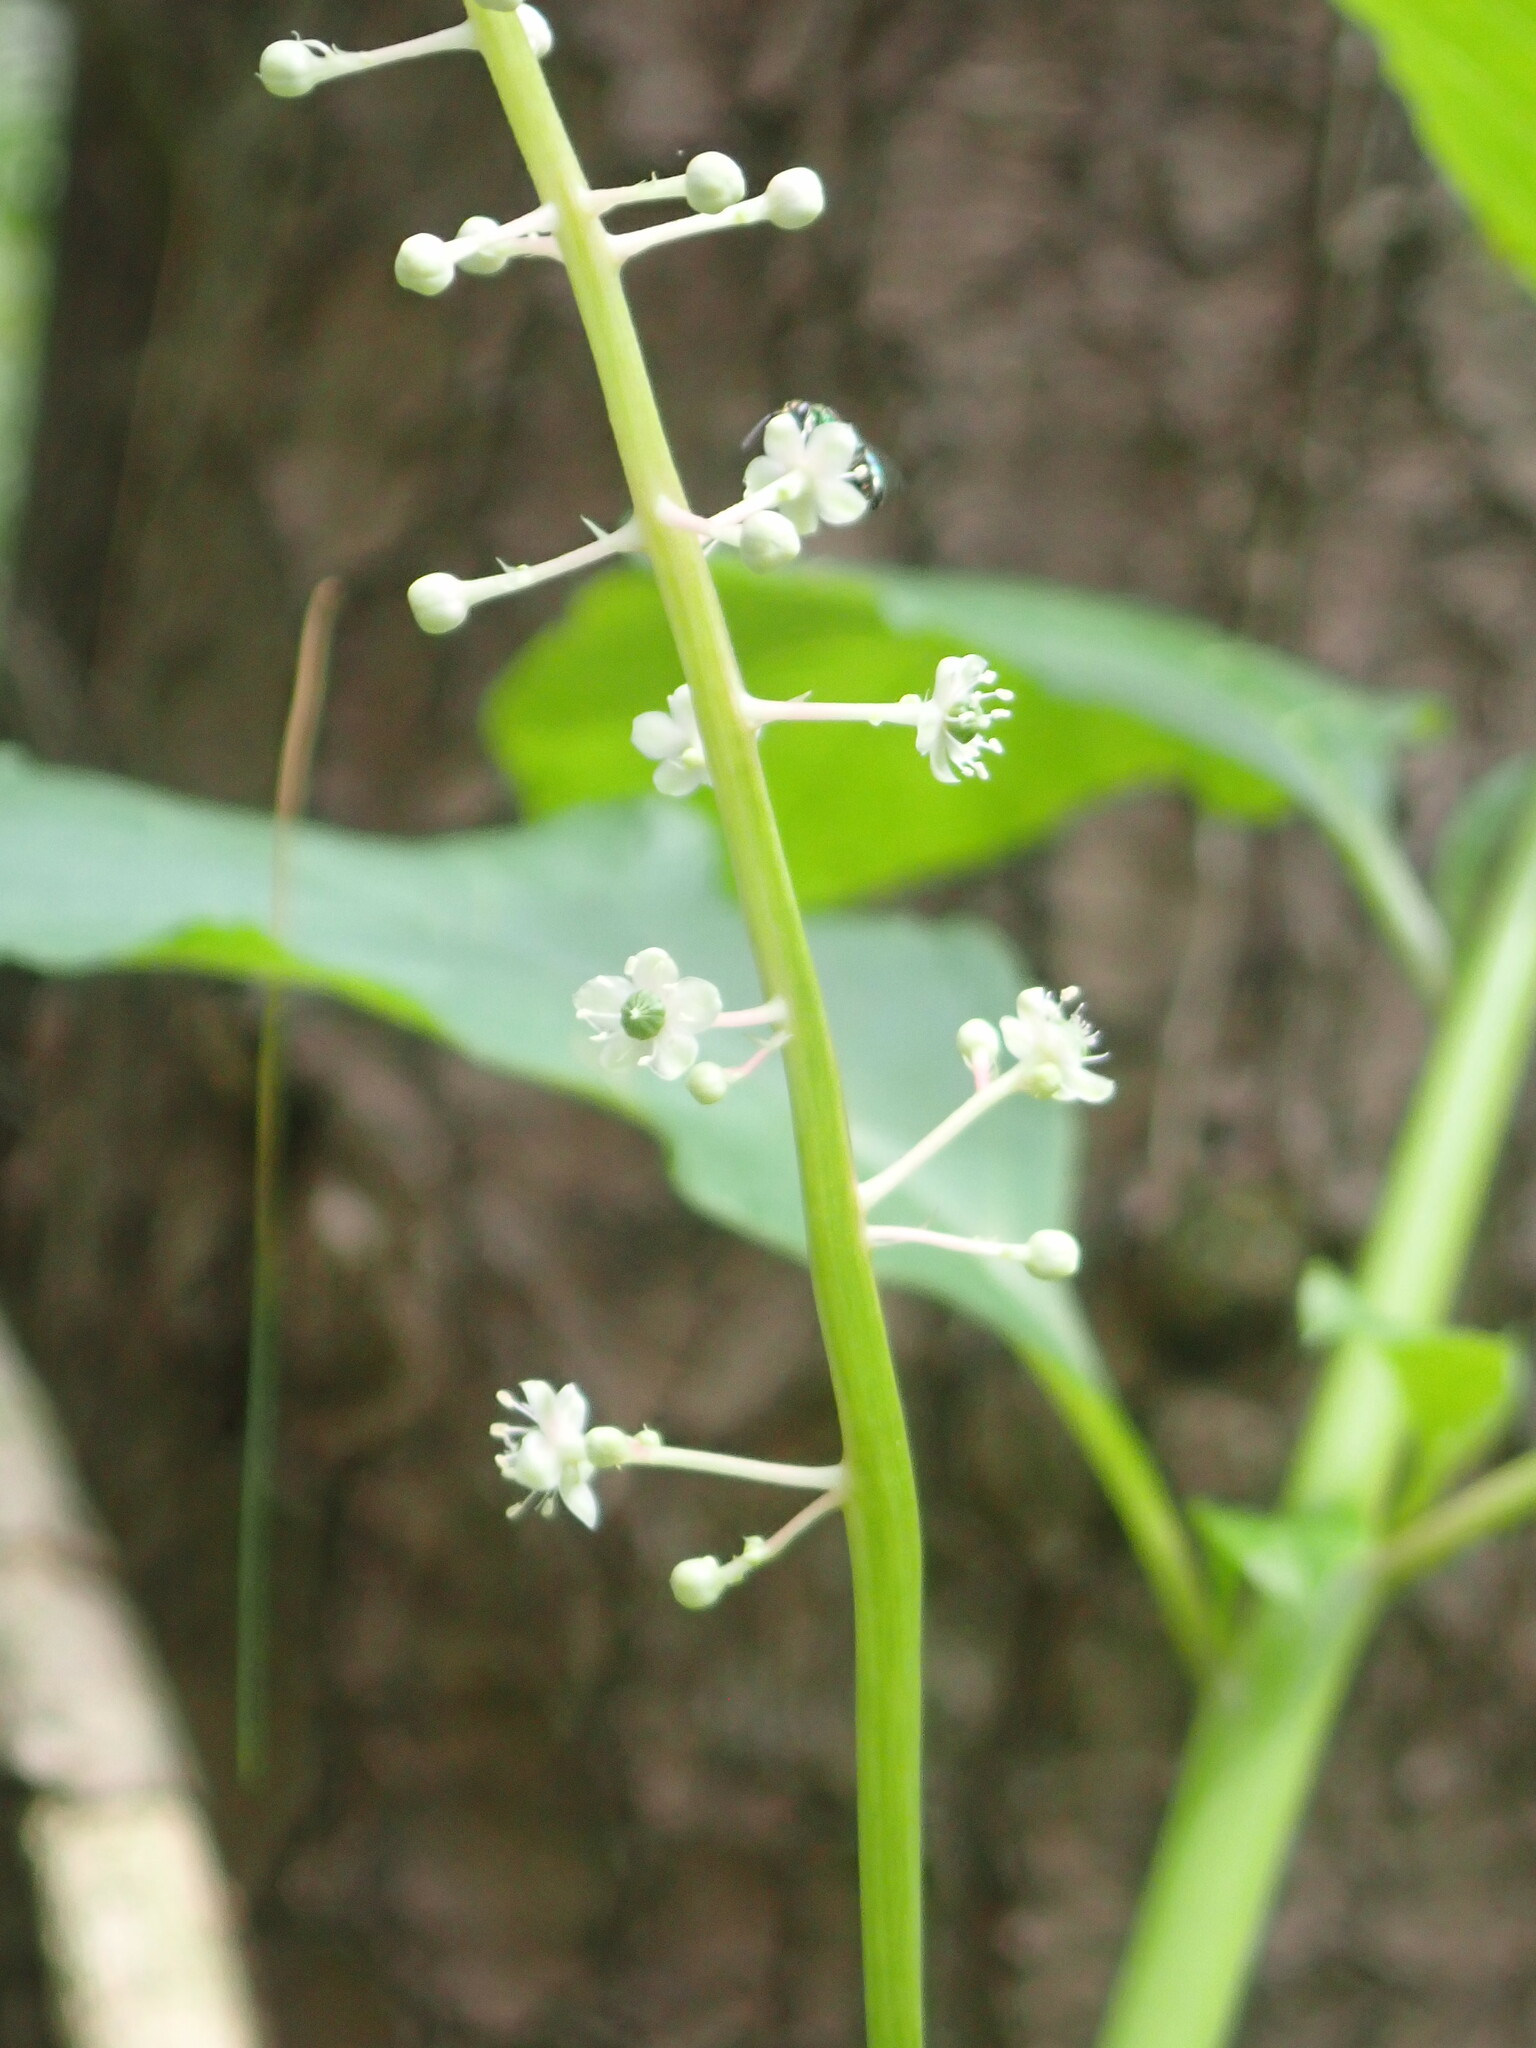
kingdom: Plantae
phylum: Tracheophyta
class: Magnoliopsida
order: Caryophyllales
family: Phytolaccaceae
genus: Phytolacca
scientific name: Phytolacca americana
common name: American pokeweed
